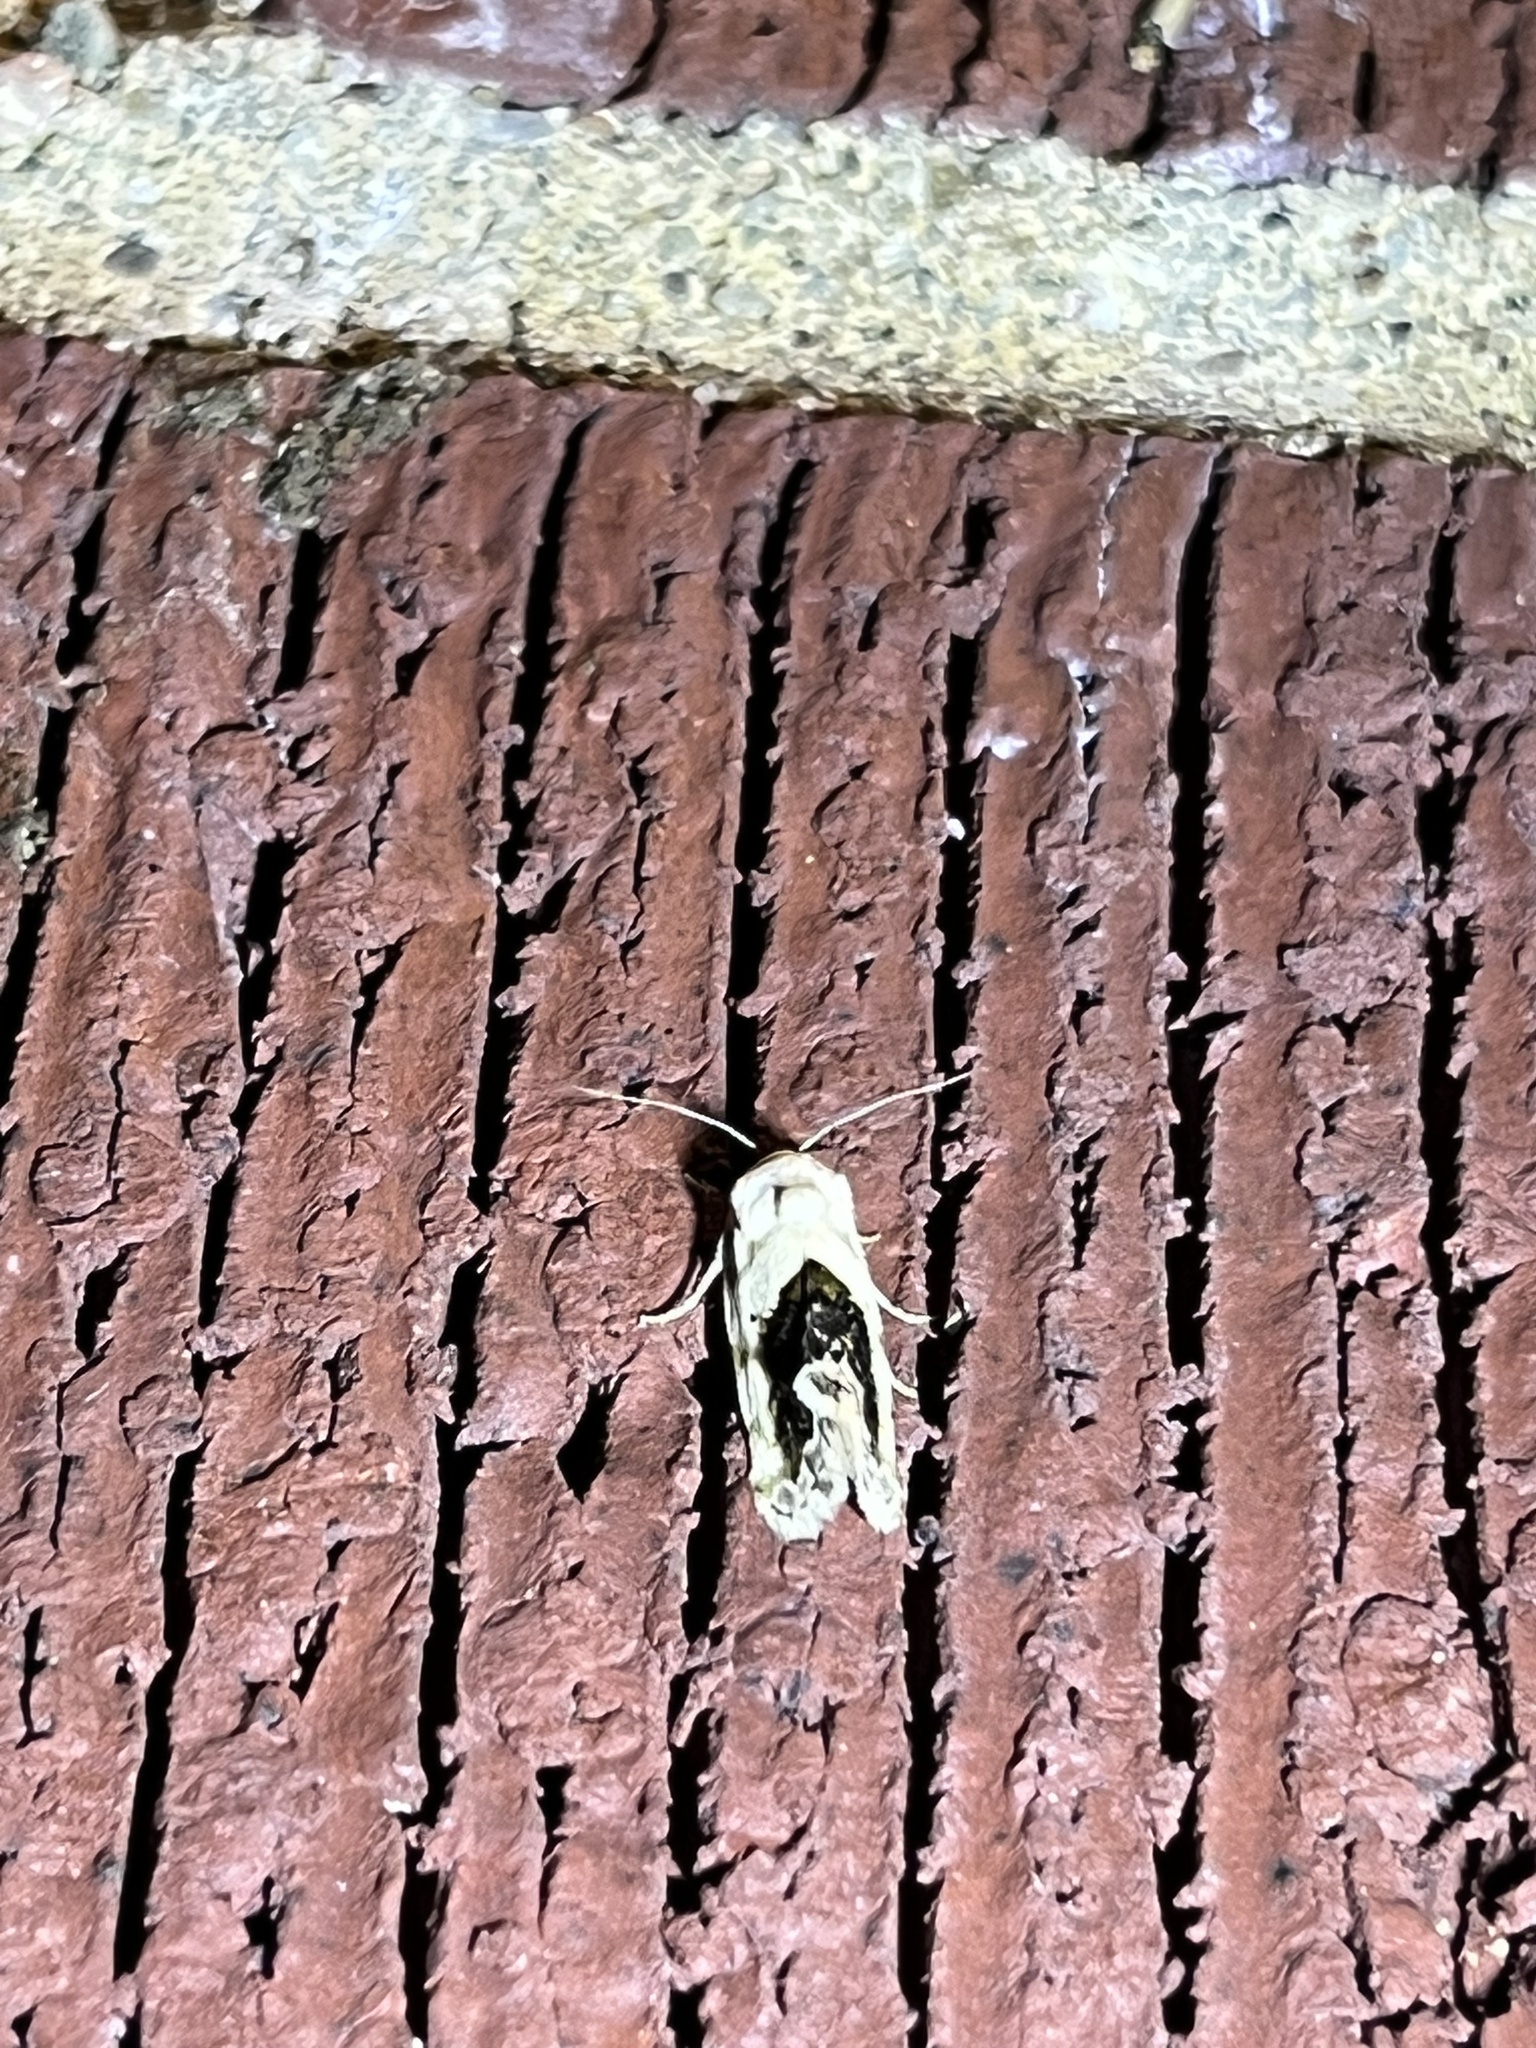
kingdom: Animalia
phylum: Arthropoda
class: Insecta
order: Lepidoptera
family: Noctuidae
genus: Acontia
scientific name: Acontia erastrioides
